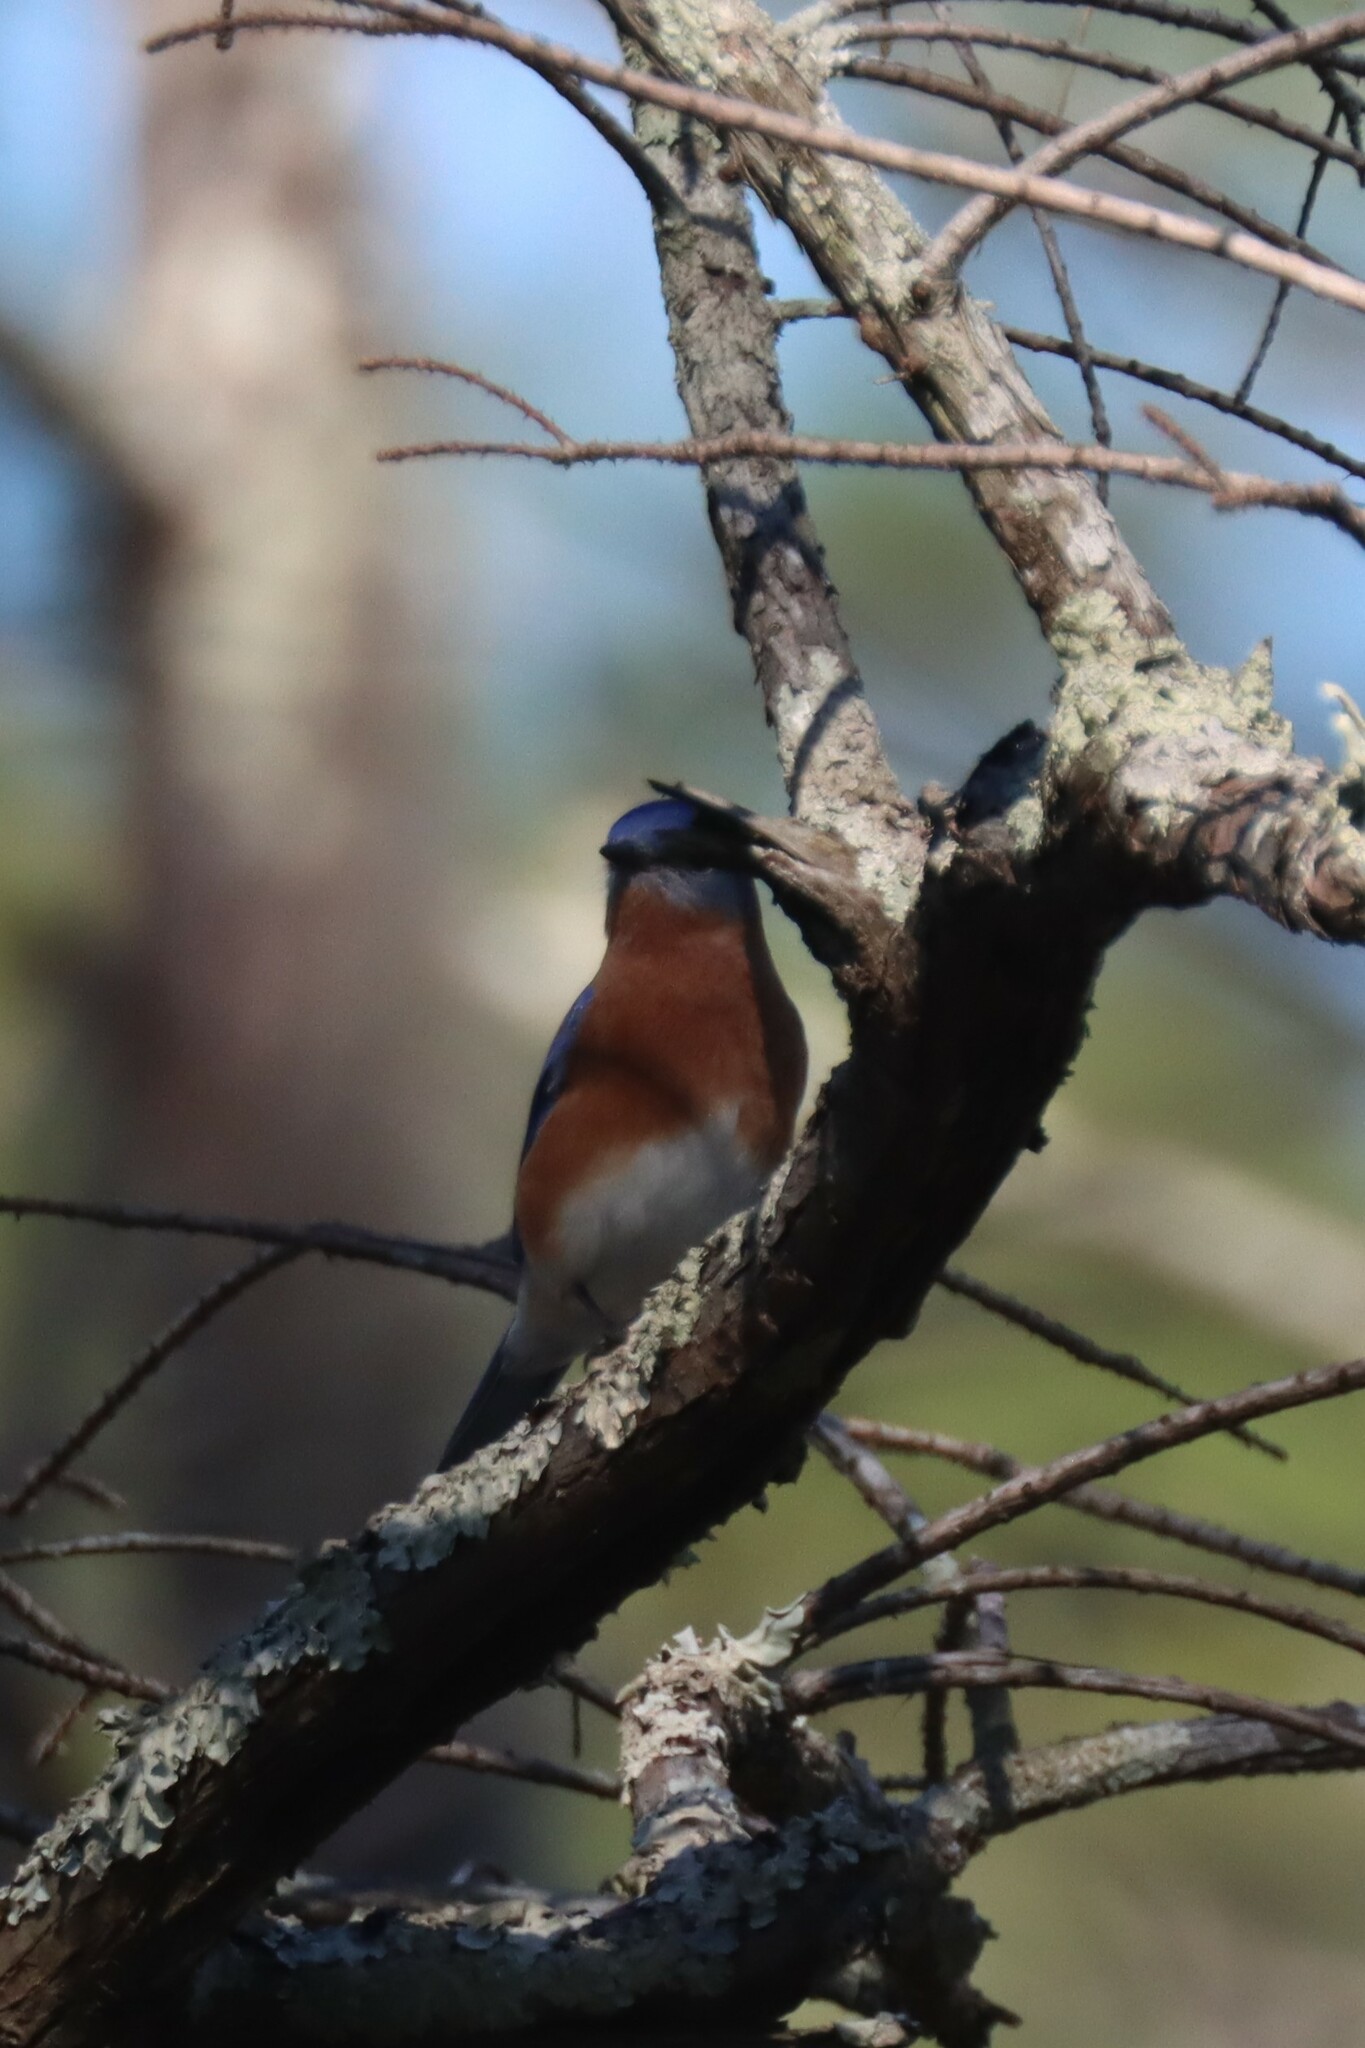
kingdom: Animalia
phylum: Chordata
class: Aves
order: Passeriformes
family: Turdidae
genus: Sialia
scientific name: Sialia sialis
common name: Eastern bluebird
